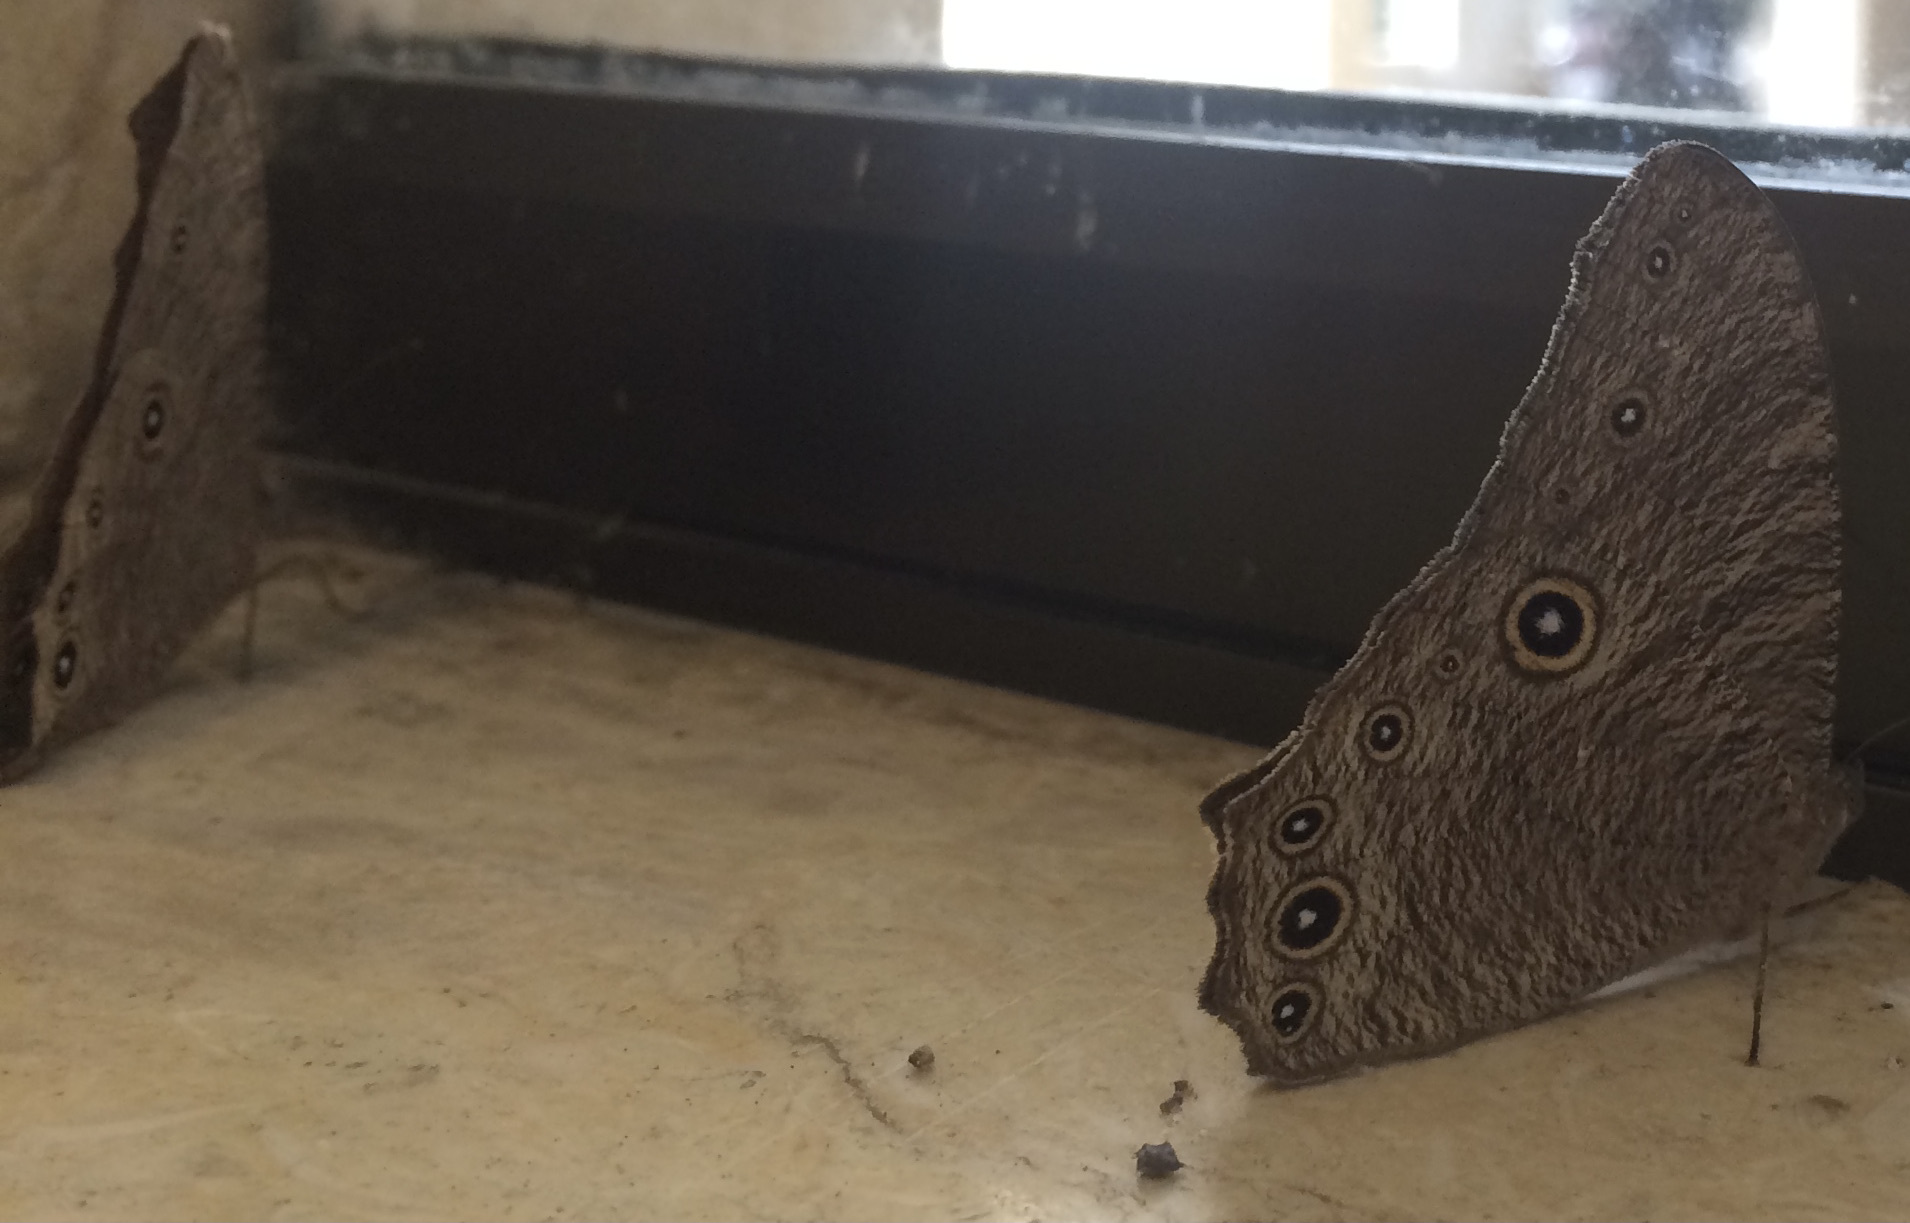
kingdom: Animalia
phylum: Arthropoda
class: Insecta
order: Lepidoptera
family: Nymphalidae
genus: Melanitis
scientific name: Melanitis leda
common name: Twilight brown
